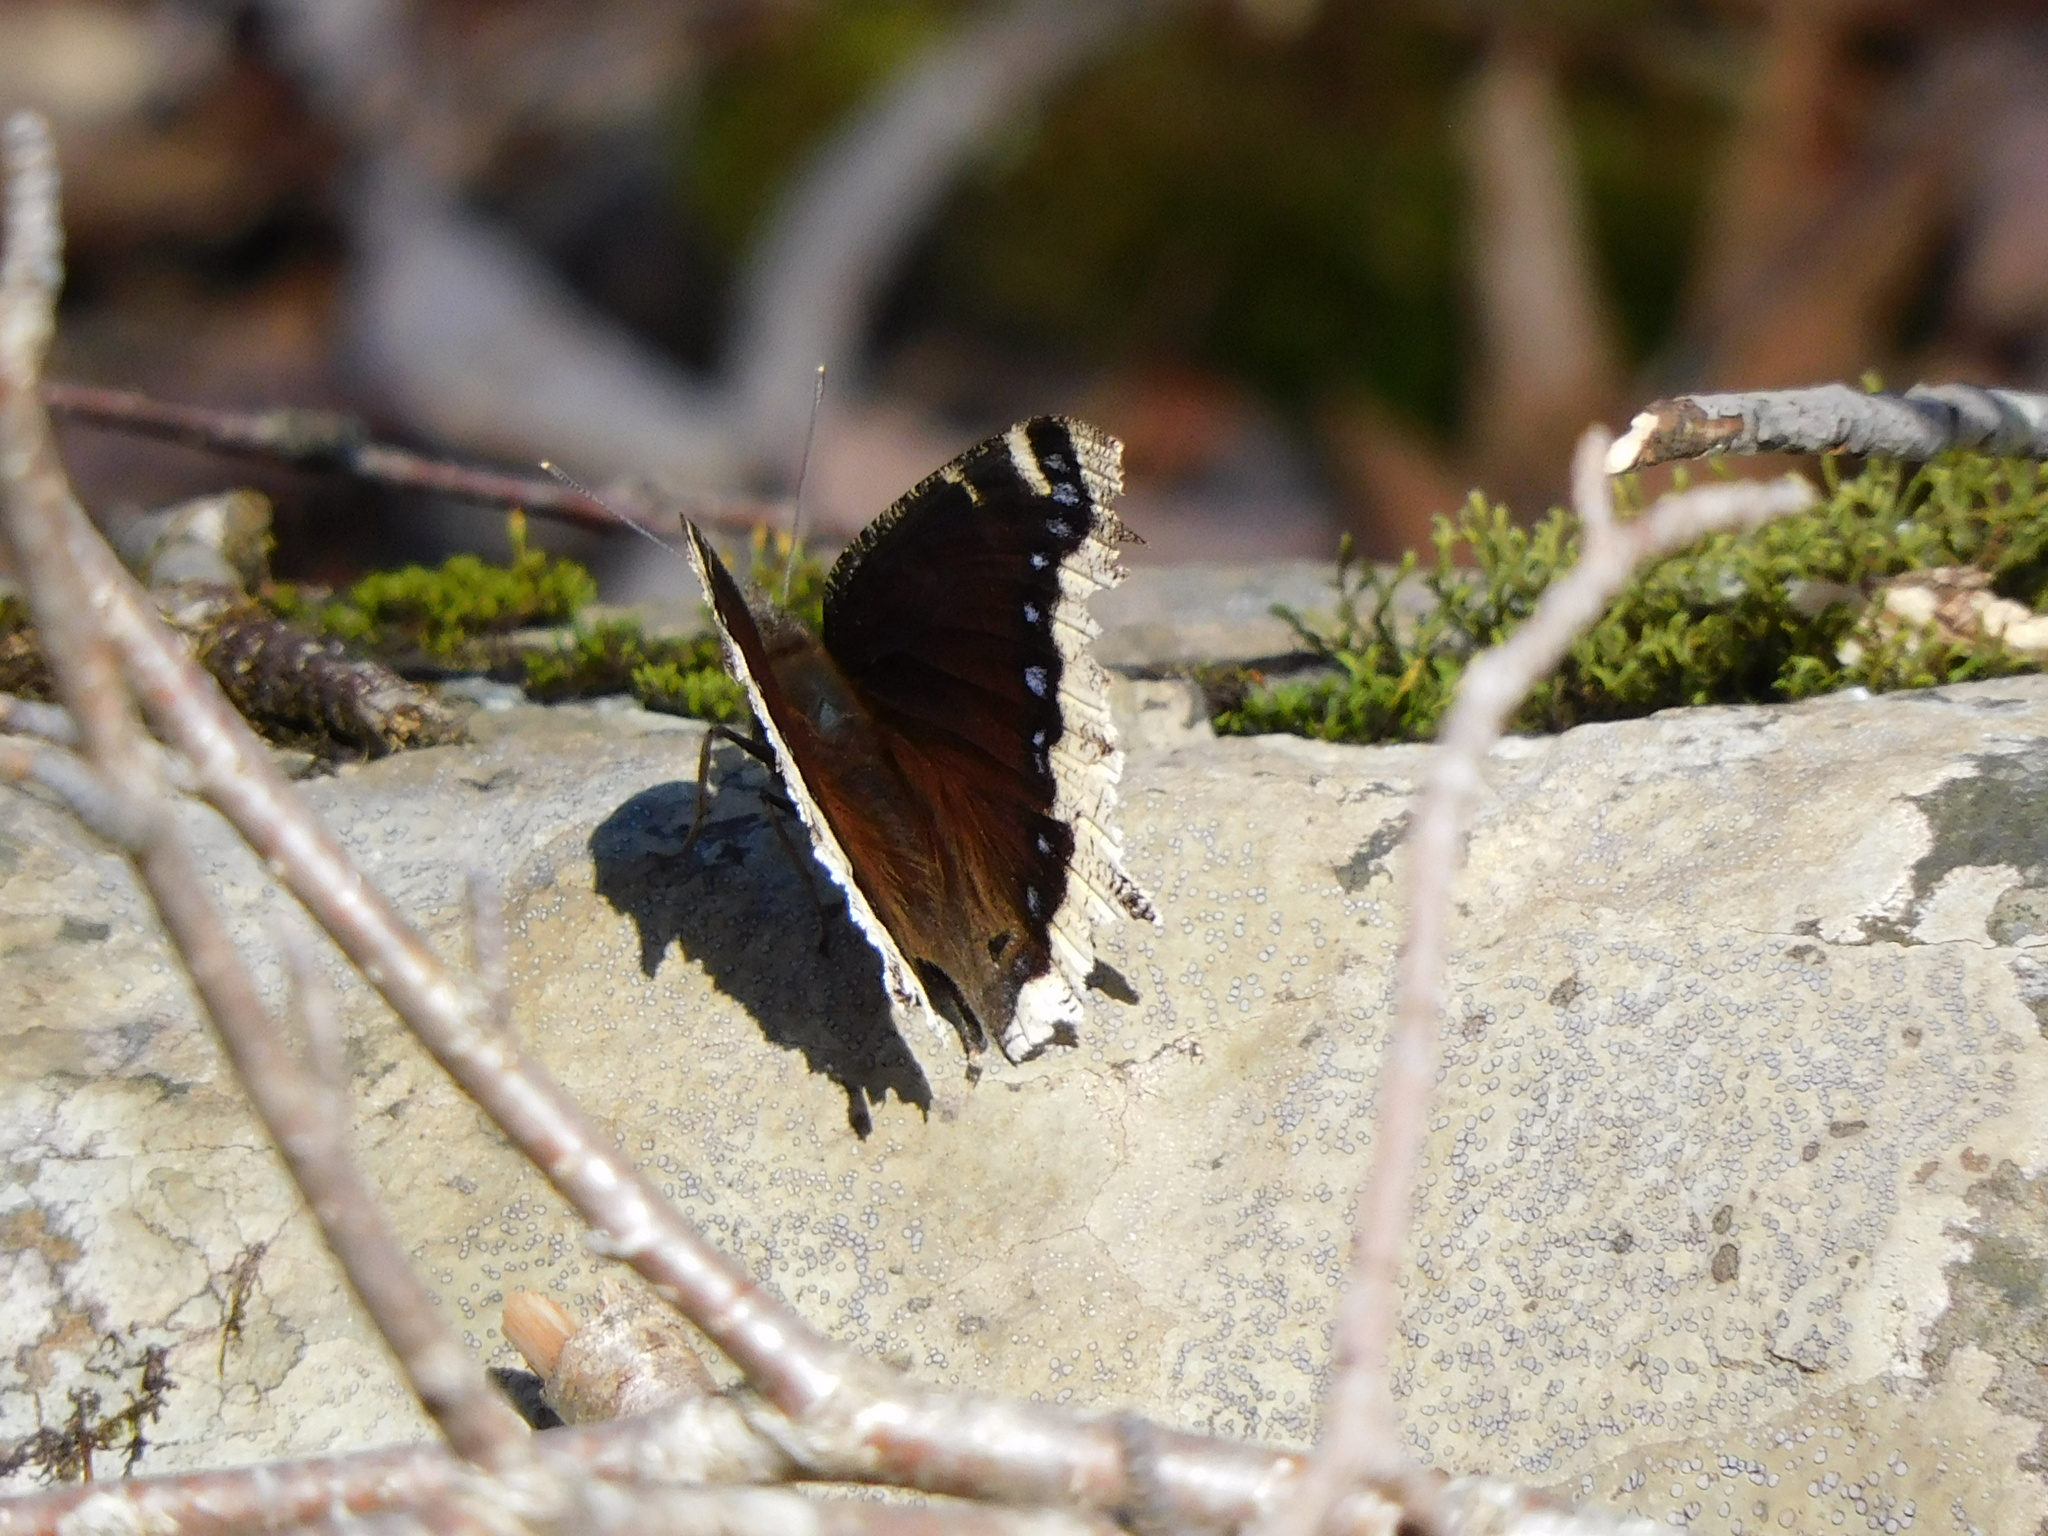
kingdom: Animalia
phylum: Arthropoda
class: Insecta
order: Lepidoptera
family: Nymphalidae
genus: Nymphalis
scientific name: Nymphalis antiopa
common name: Camberwell beauty
